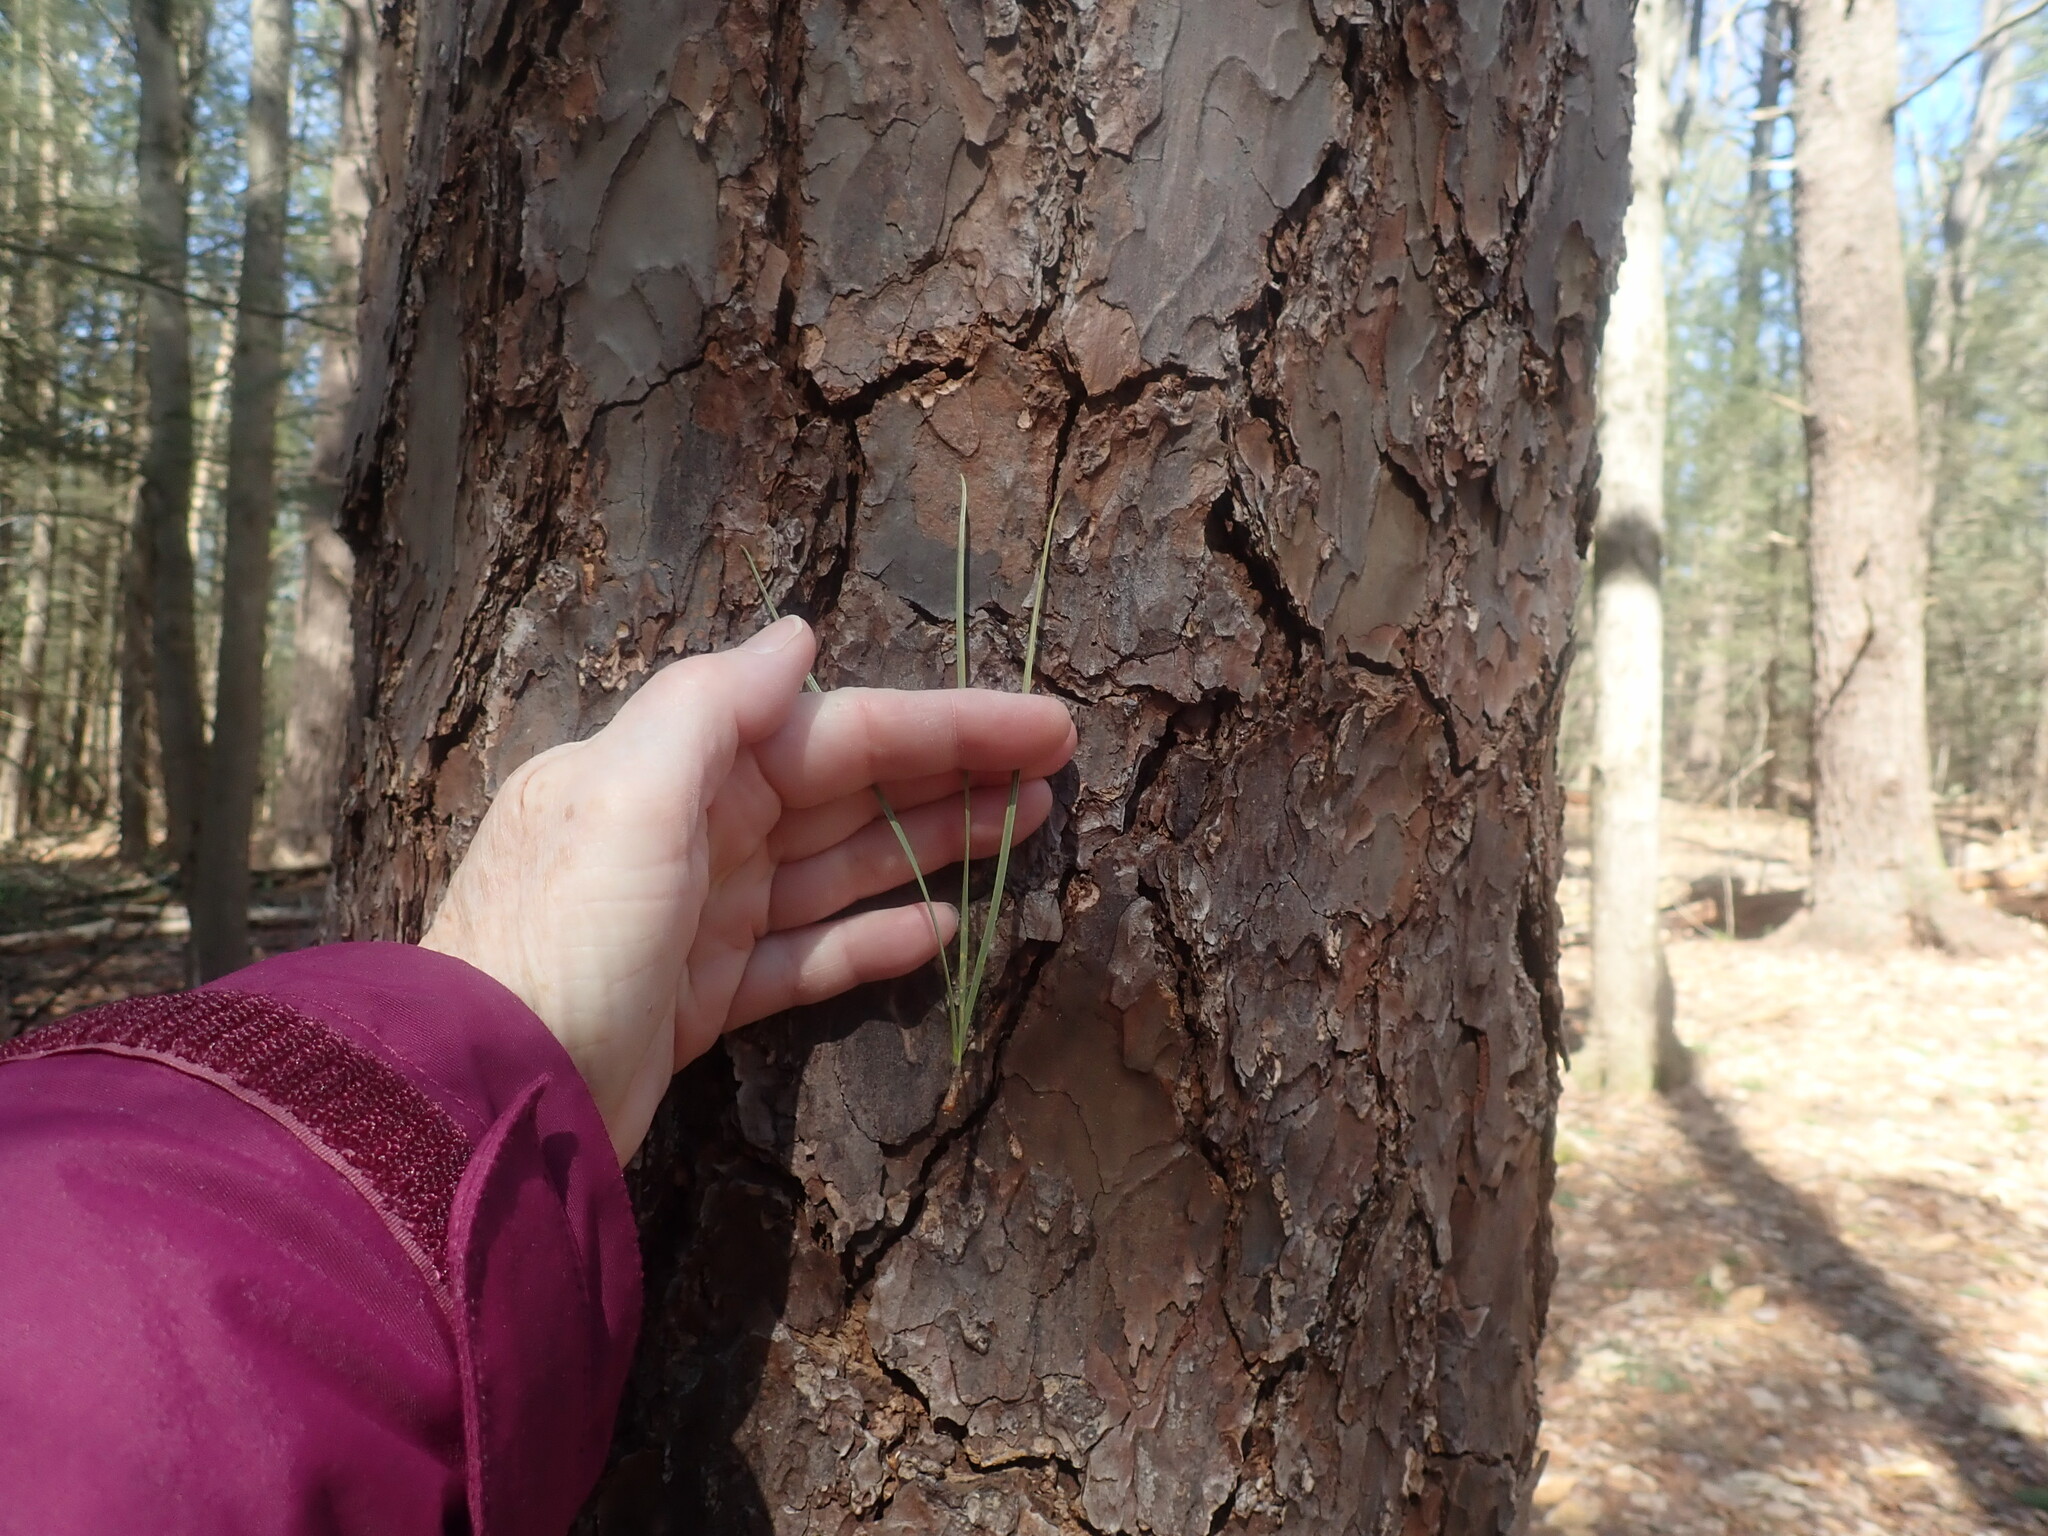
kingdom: Plantae
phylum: Tracheophyta
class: Pinopsida
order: Pinales
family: Pinaceae
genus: Pinus
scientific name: Pinus rigida
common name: Pitch pine
